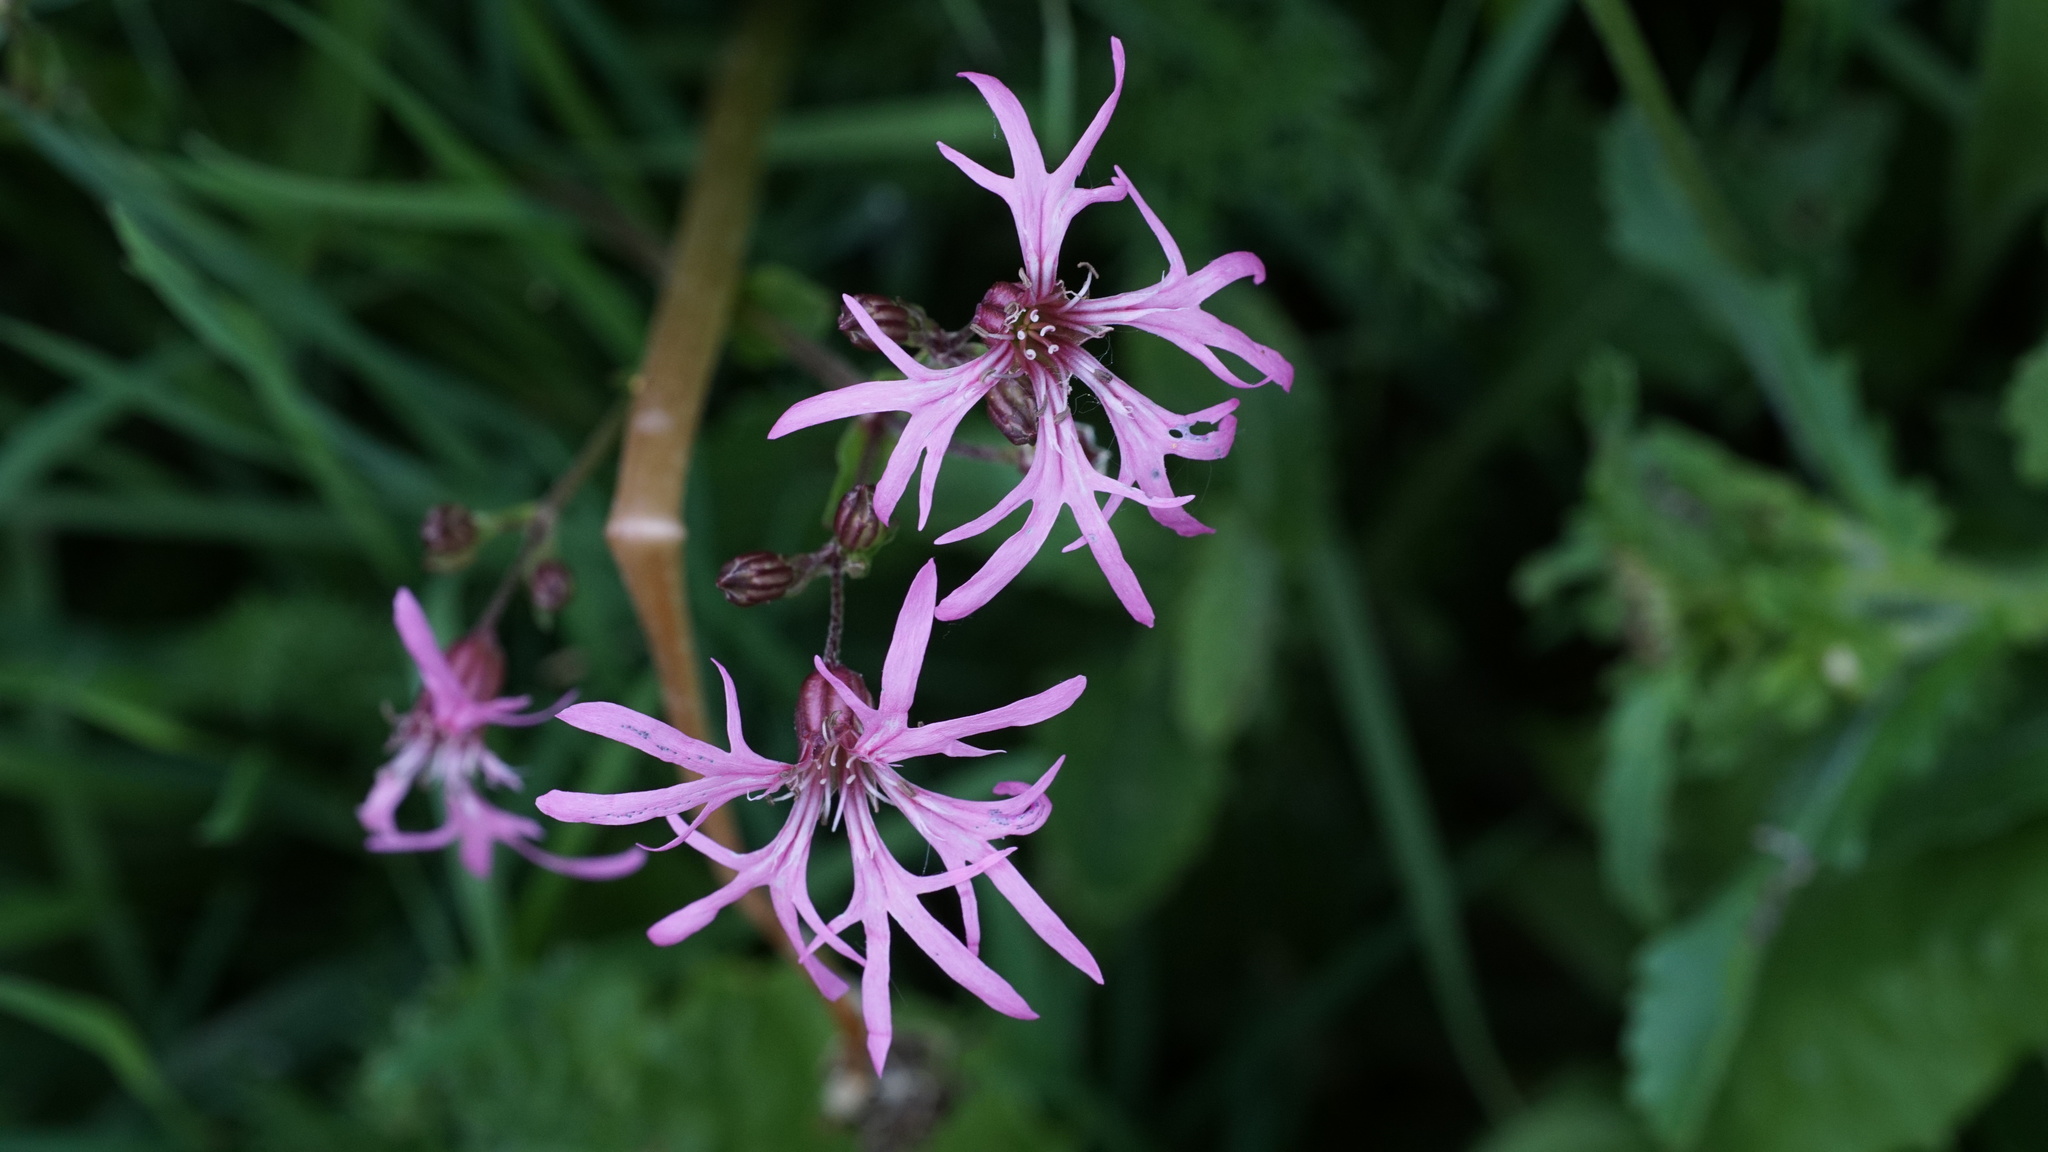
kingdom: Plantae
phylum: Tracheophyta
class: Magnoliopsida
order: Caryophyllales
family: Caryophyllaceae
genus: Silene
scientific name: Silene flos-cuculi
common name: Ragged-robin
